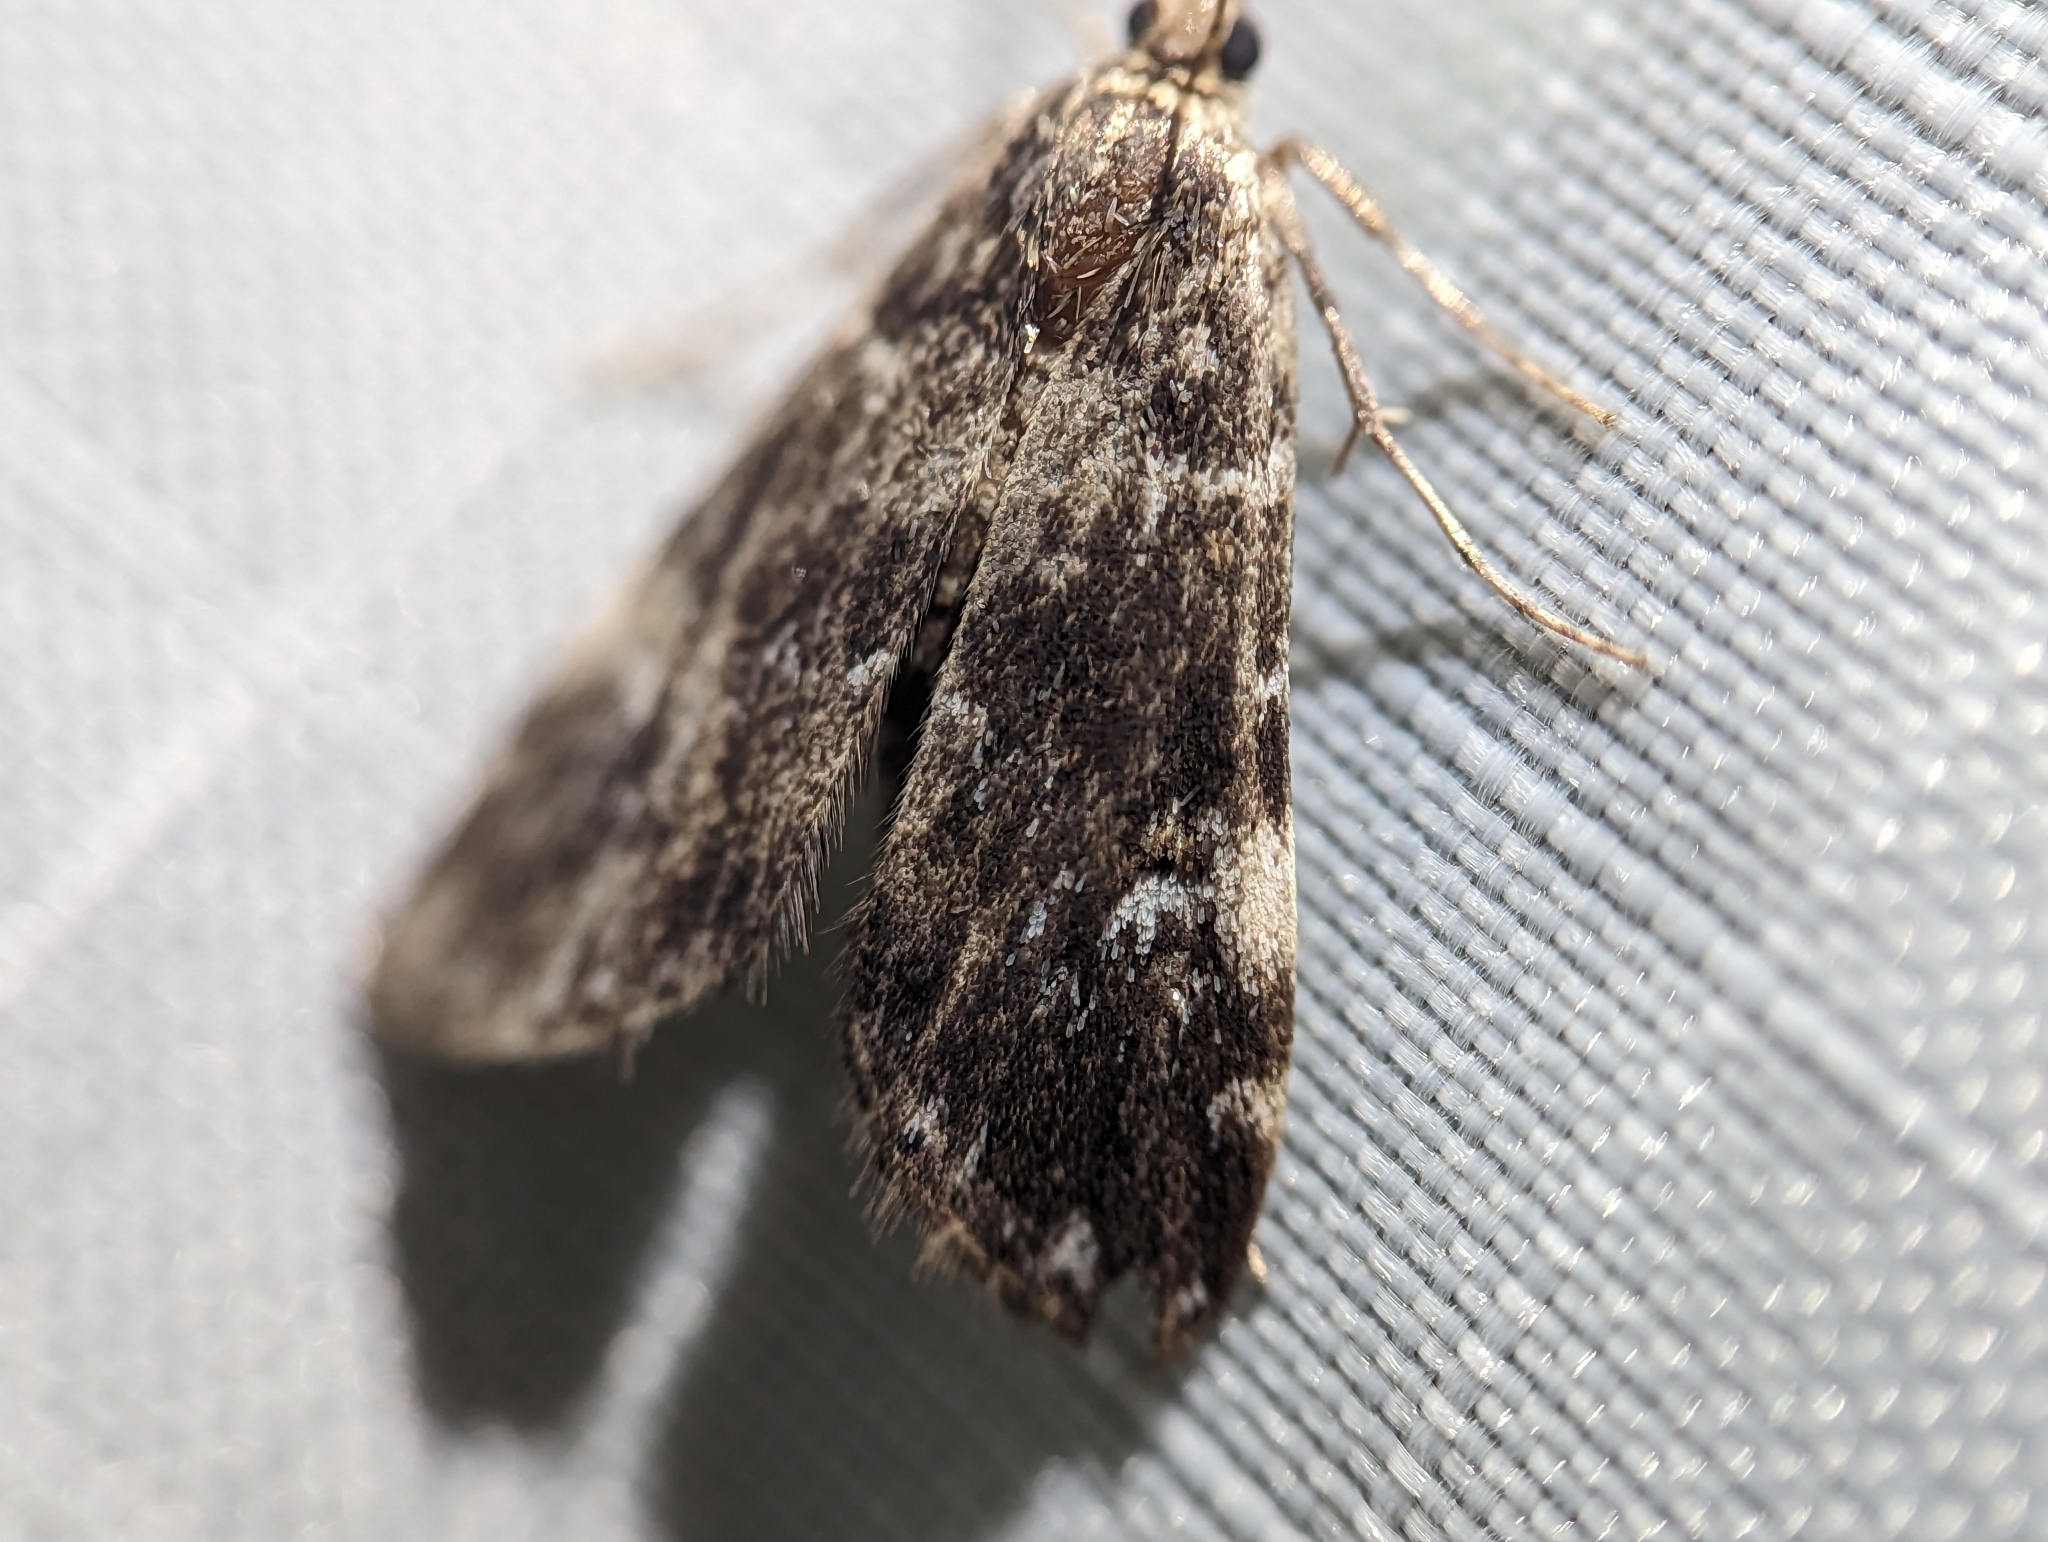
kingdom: Animalia
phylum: Arthropoda
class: Insecta
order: Lepidoptera
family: Crambidae
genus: Elophila
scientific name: Elophila obliteralis
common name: Waterlily leafcutter moth
